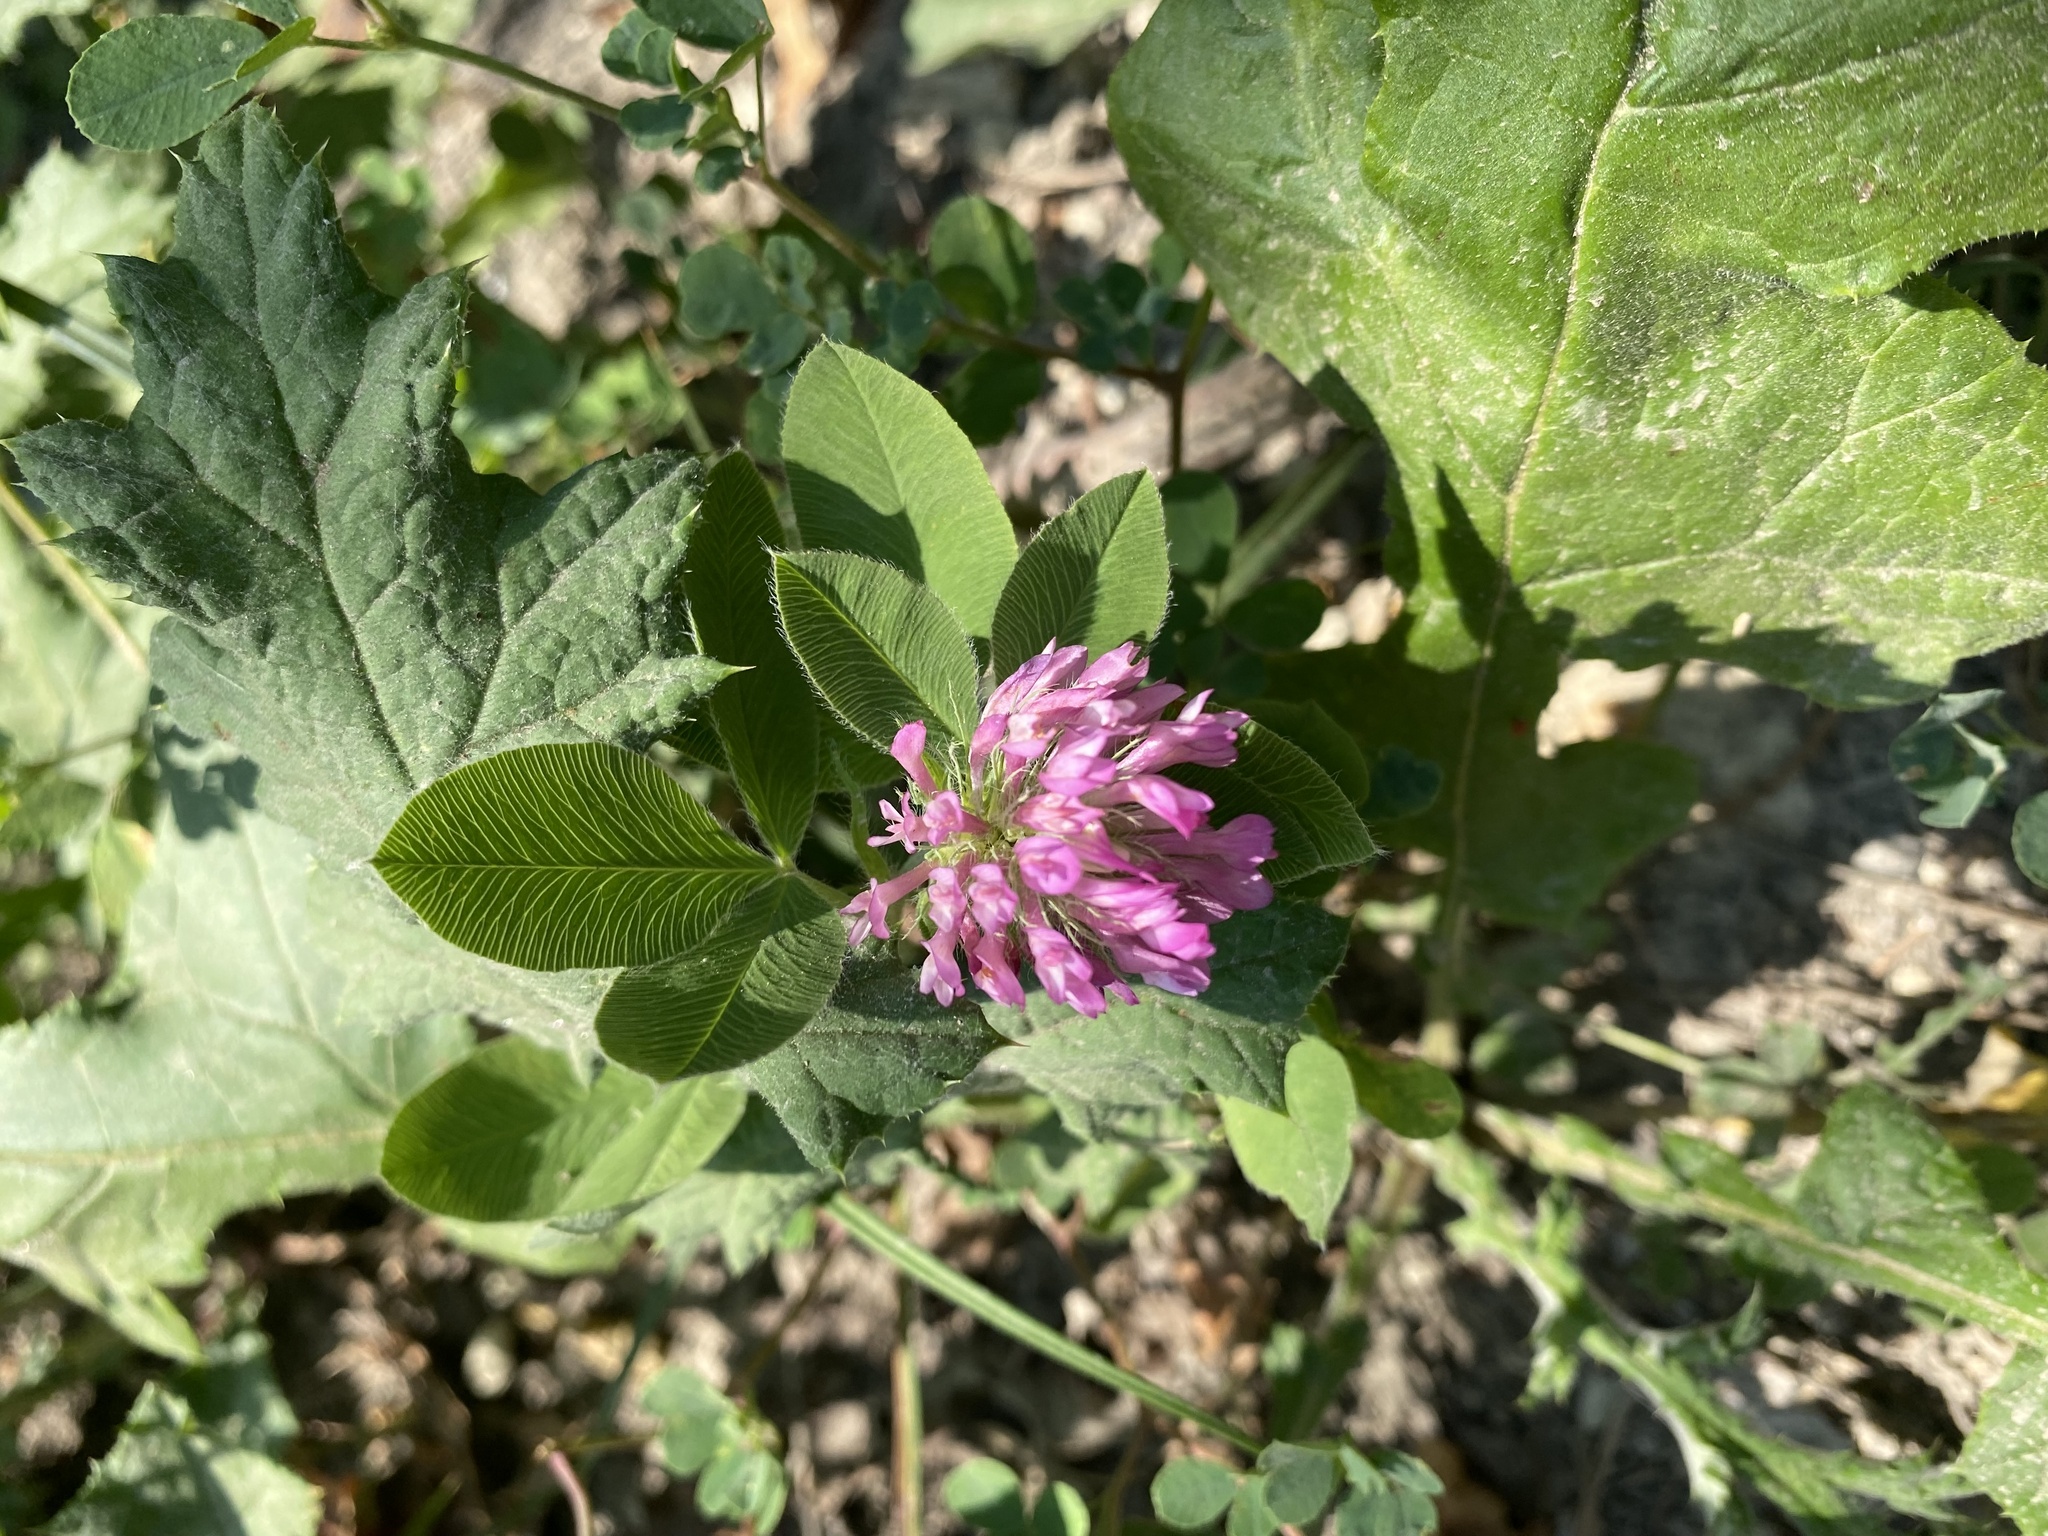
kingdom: Plantae
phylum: Tracheophyta
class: Magnoliopsida
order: Fabales
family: Fabaceae
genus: Trifolium
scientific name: Trifolium pratense
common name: Red clover
